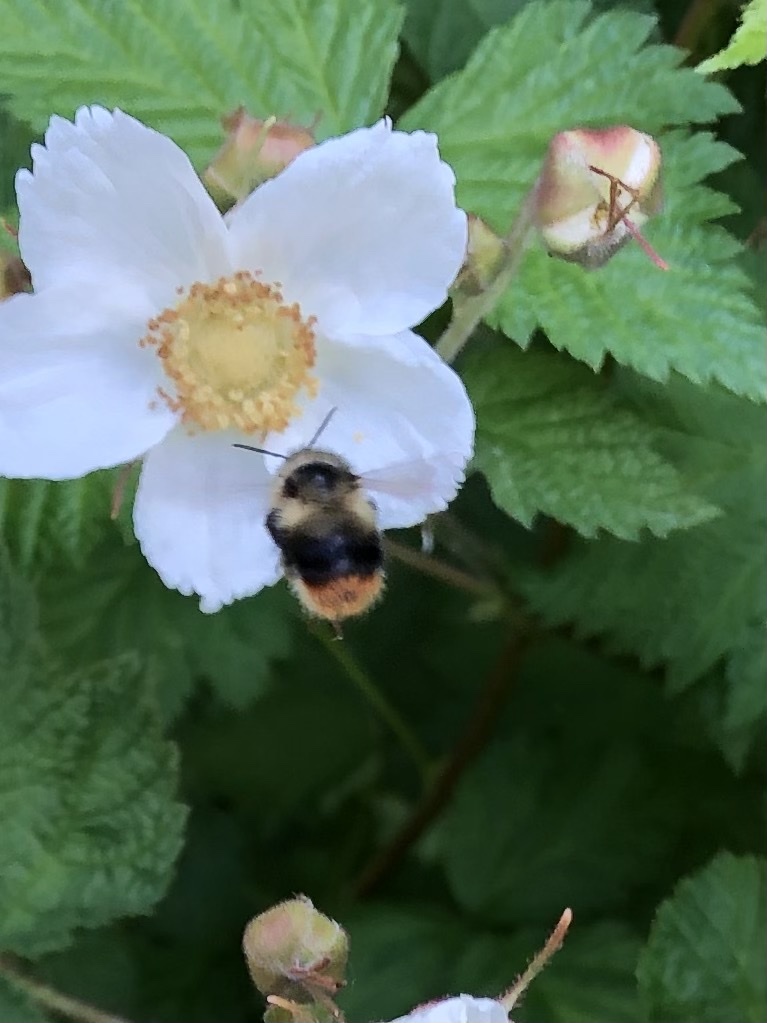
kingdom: Animalia
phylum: Arthropoda
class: Insecta
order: Hymenoptera
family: Apidae
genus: Bombus
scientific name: Bombus mixtus
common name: Fuzzy-horned bumble bee
